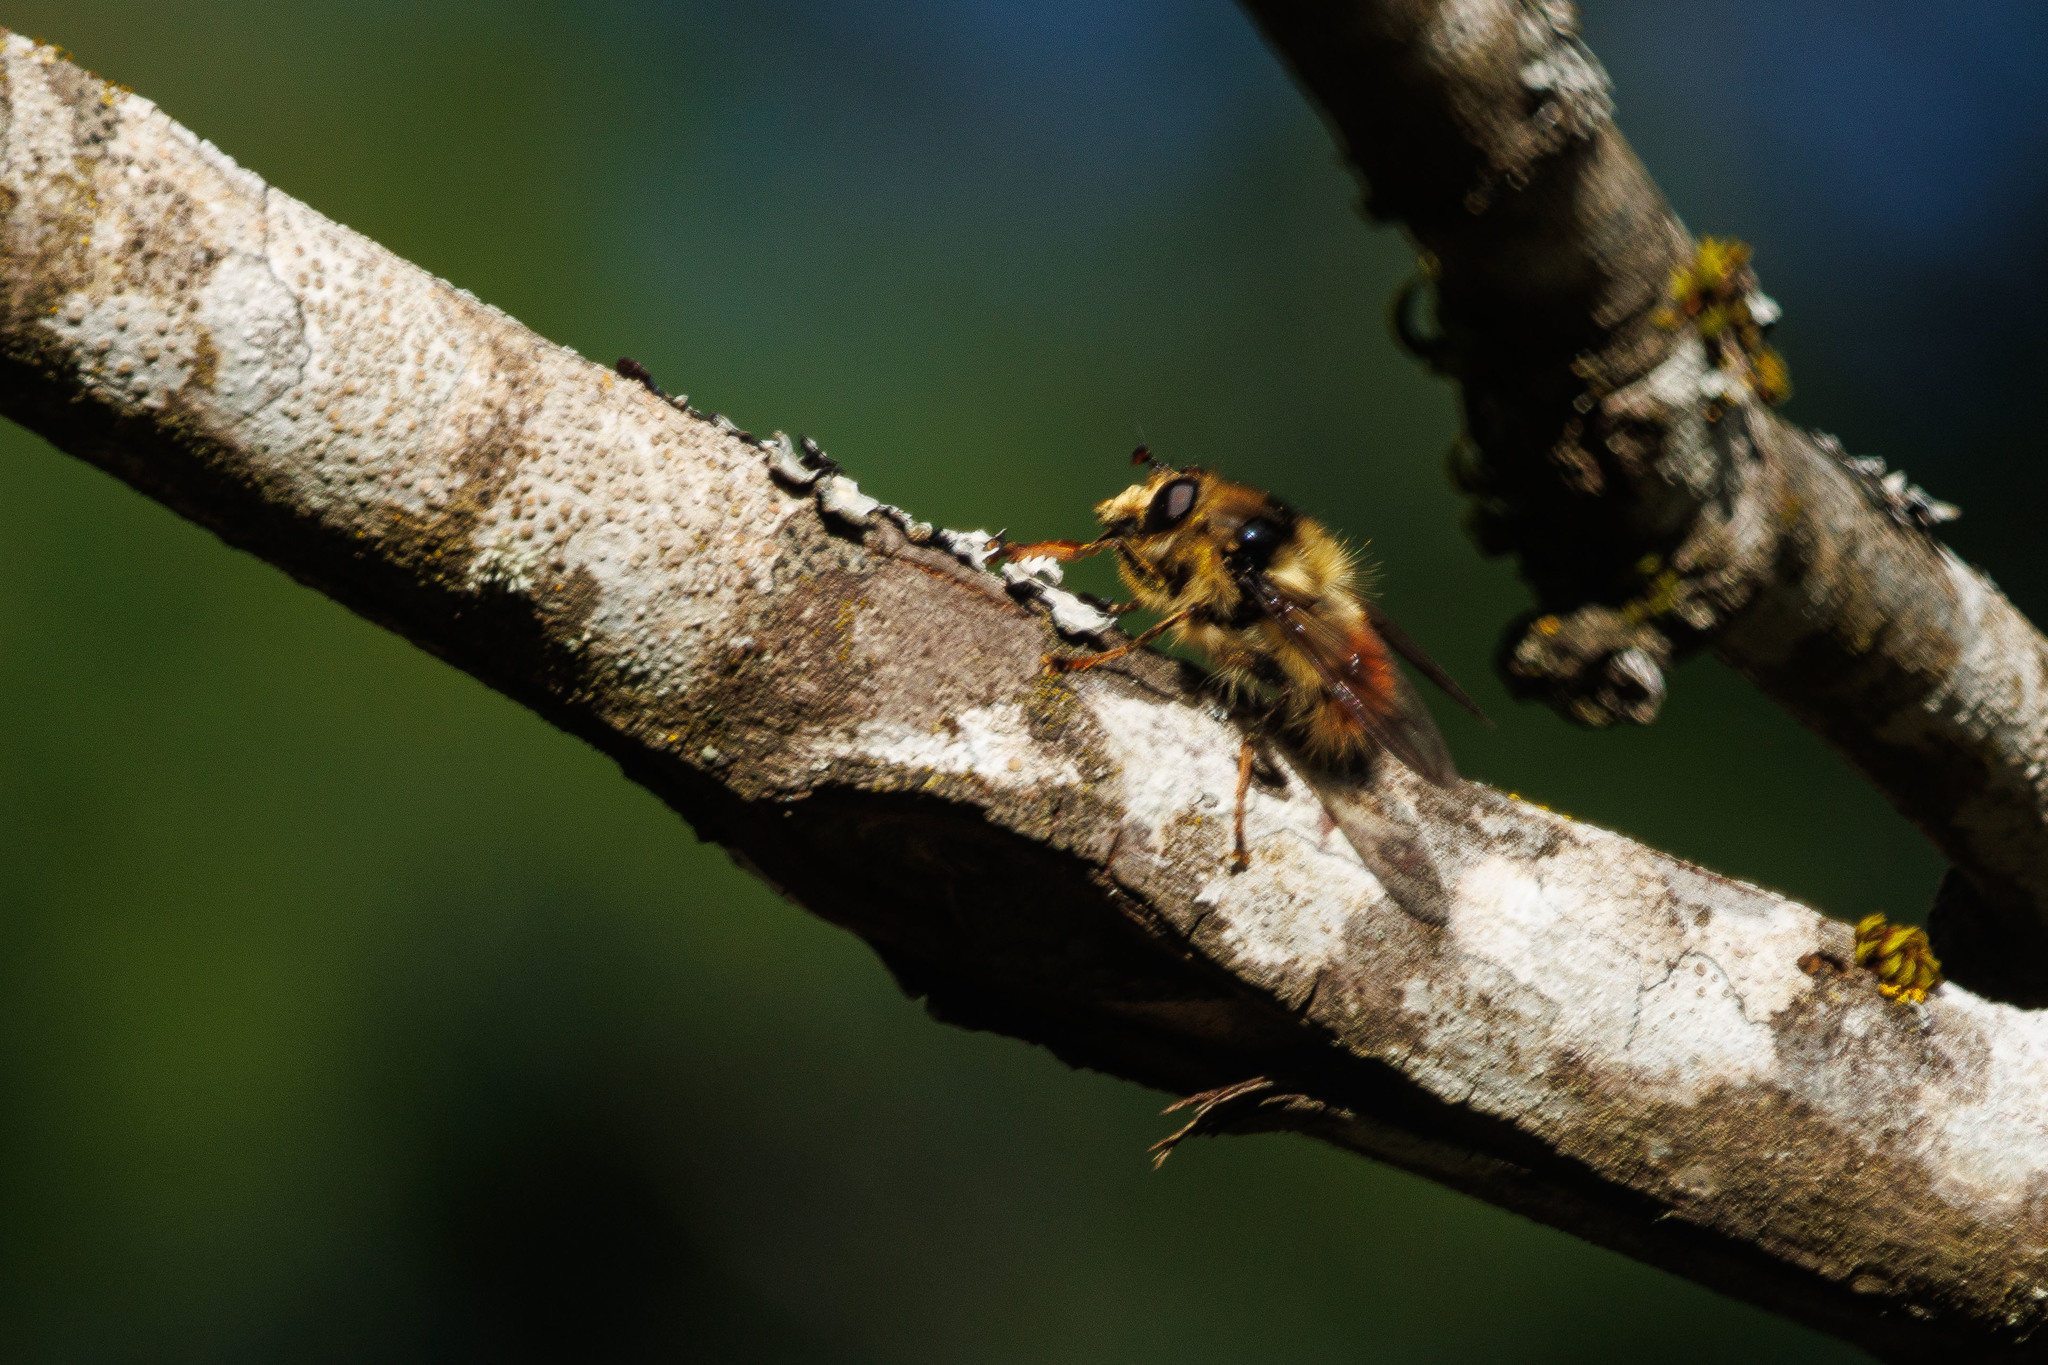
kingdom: Animalia
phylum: Arthropoda
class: Insecta
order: Diptera
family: Syrphidae
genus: Criorhina
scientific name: Criorhina bubulcus
